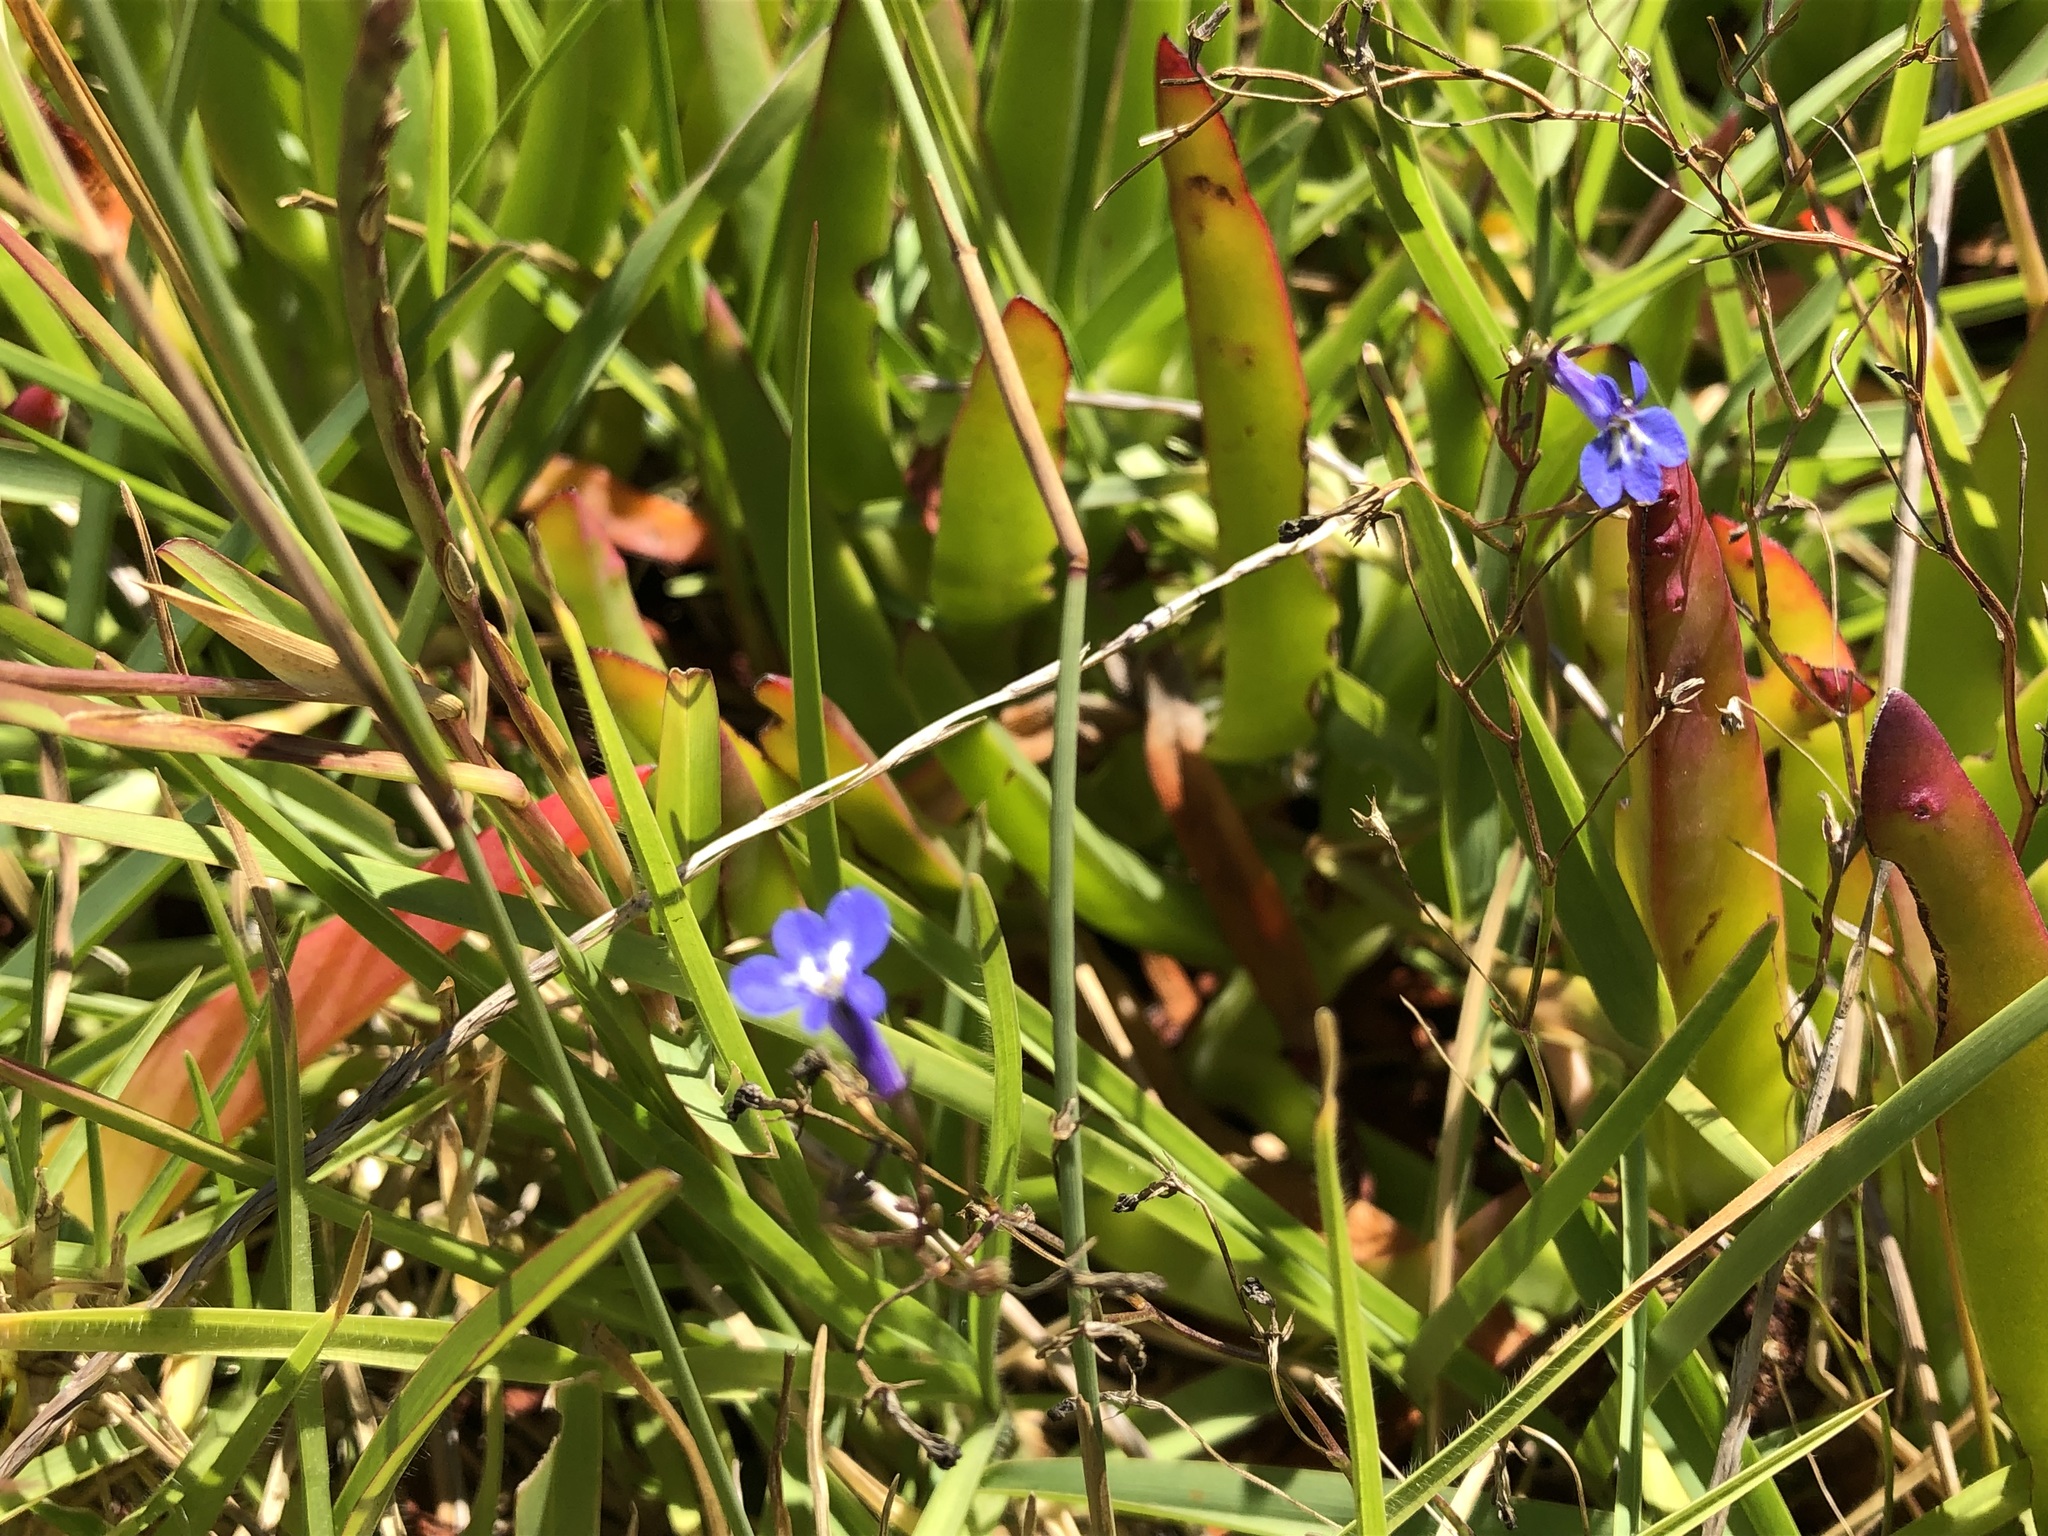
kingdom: Plantae
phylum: Tracheophyta
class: Magnoliopsida
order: Asterales
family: Campanulaceae
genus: Lobelia
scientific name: Lobelia erinus
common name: Edging lobelia
